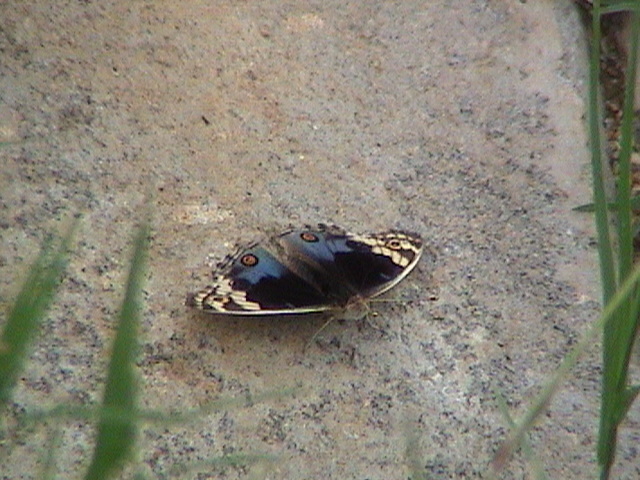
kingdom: Animalia
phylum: Arthropoda
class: Insecta
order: Lepidoptera
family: Nymphalidae
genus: Junonia
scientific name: Junonia orithya
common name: Blue pansy
